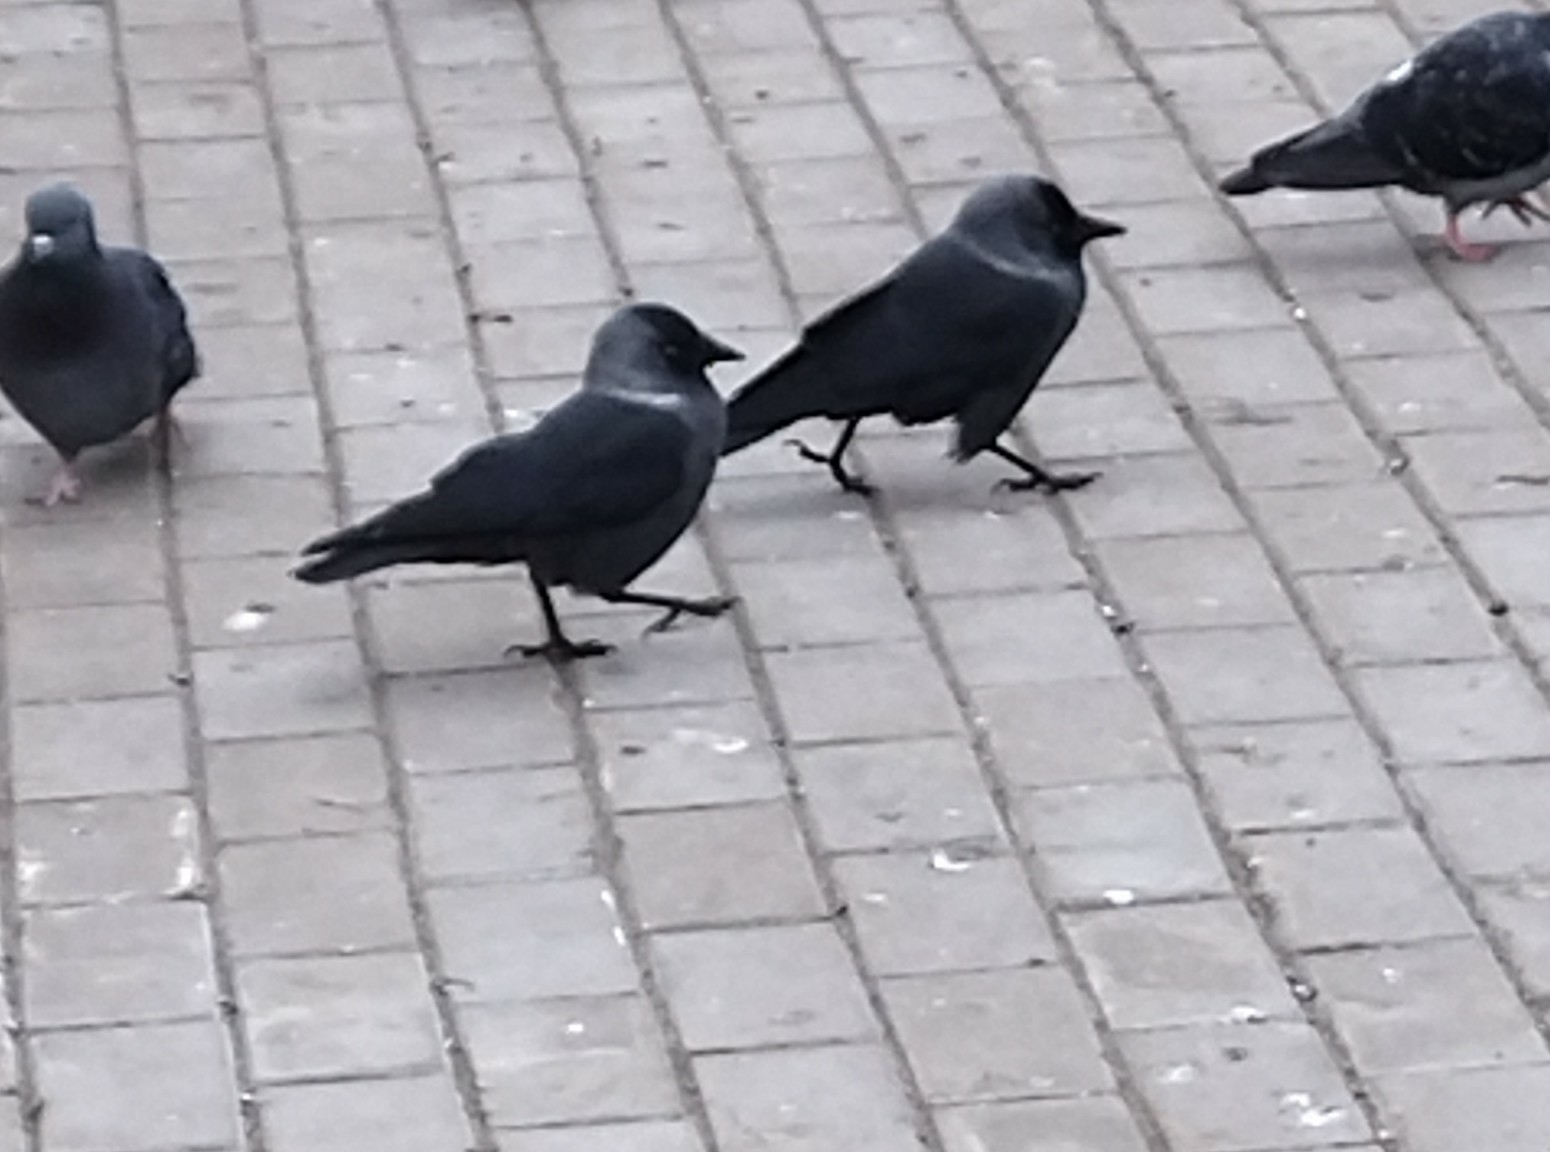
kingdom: Animalia
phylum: Chordata
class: Aves
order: Passeriformes
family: Corvidae
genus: Coloeus
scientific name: Coloeus monedula
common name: Western jackdaw
